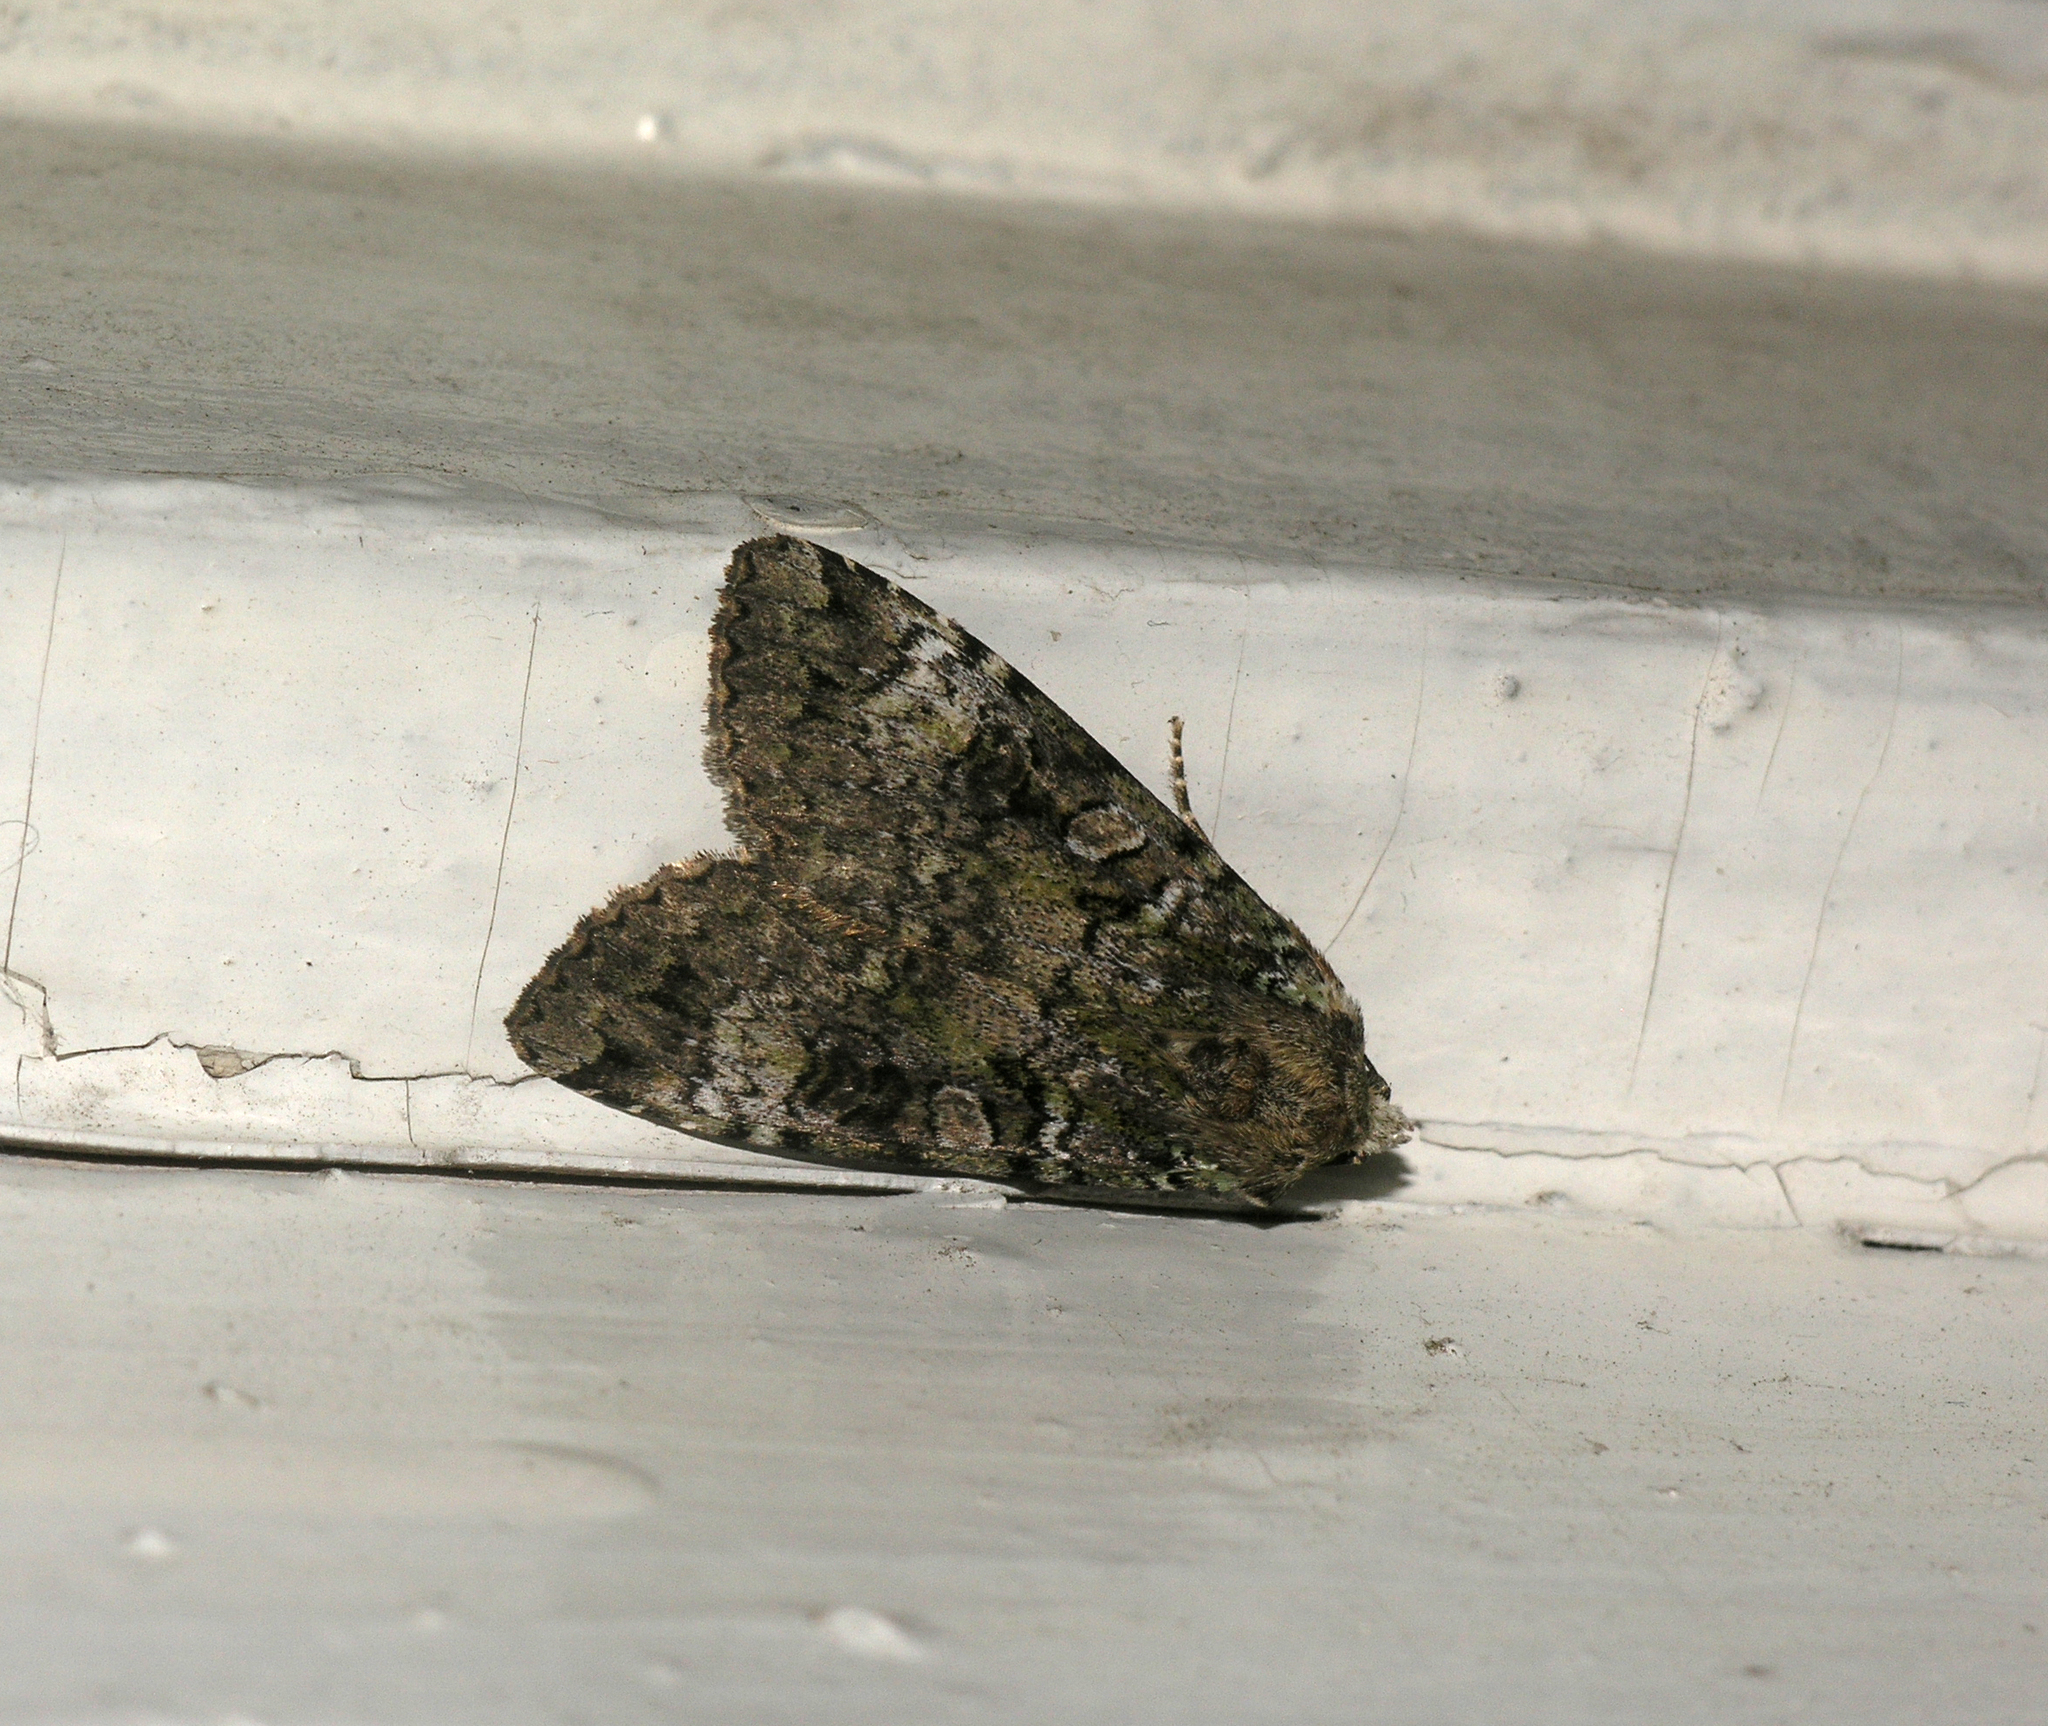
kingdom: Animalia
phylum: Arthropoda
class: Insecta
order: Lepidoptera
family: Noctuidae
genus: Anaplectoides
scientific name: Anaplectoides prasina
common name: Green arches
